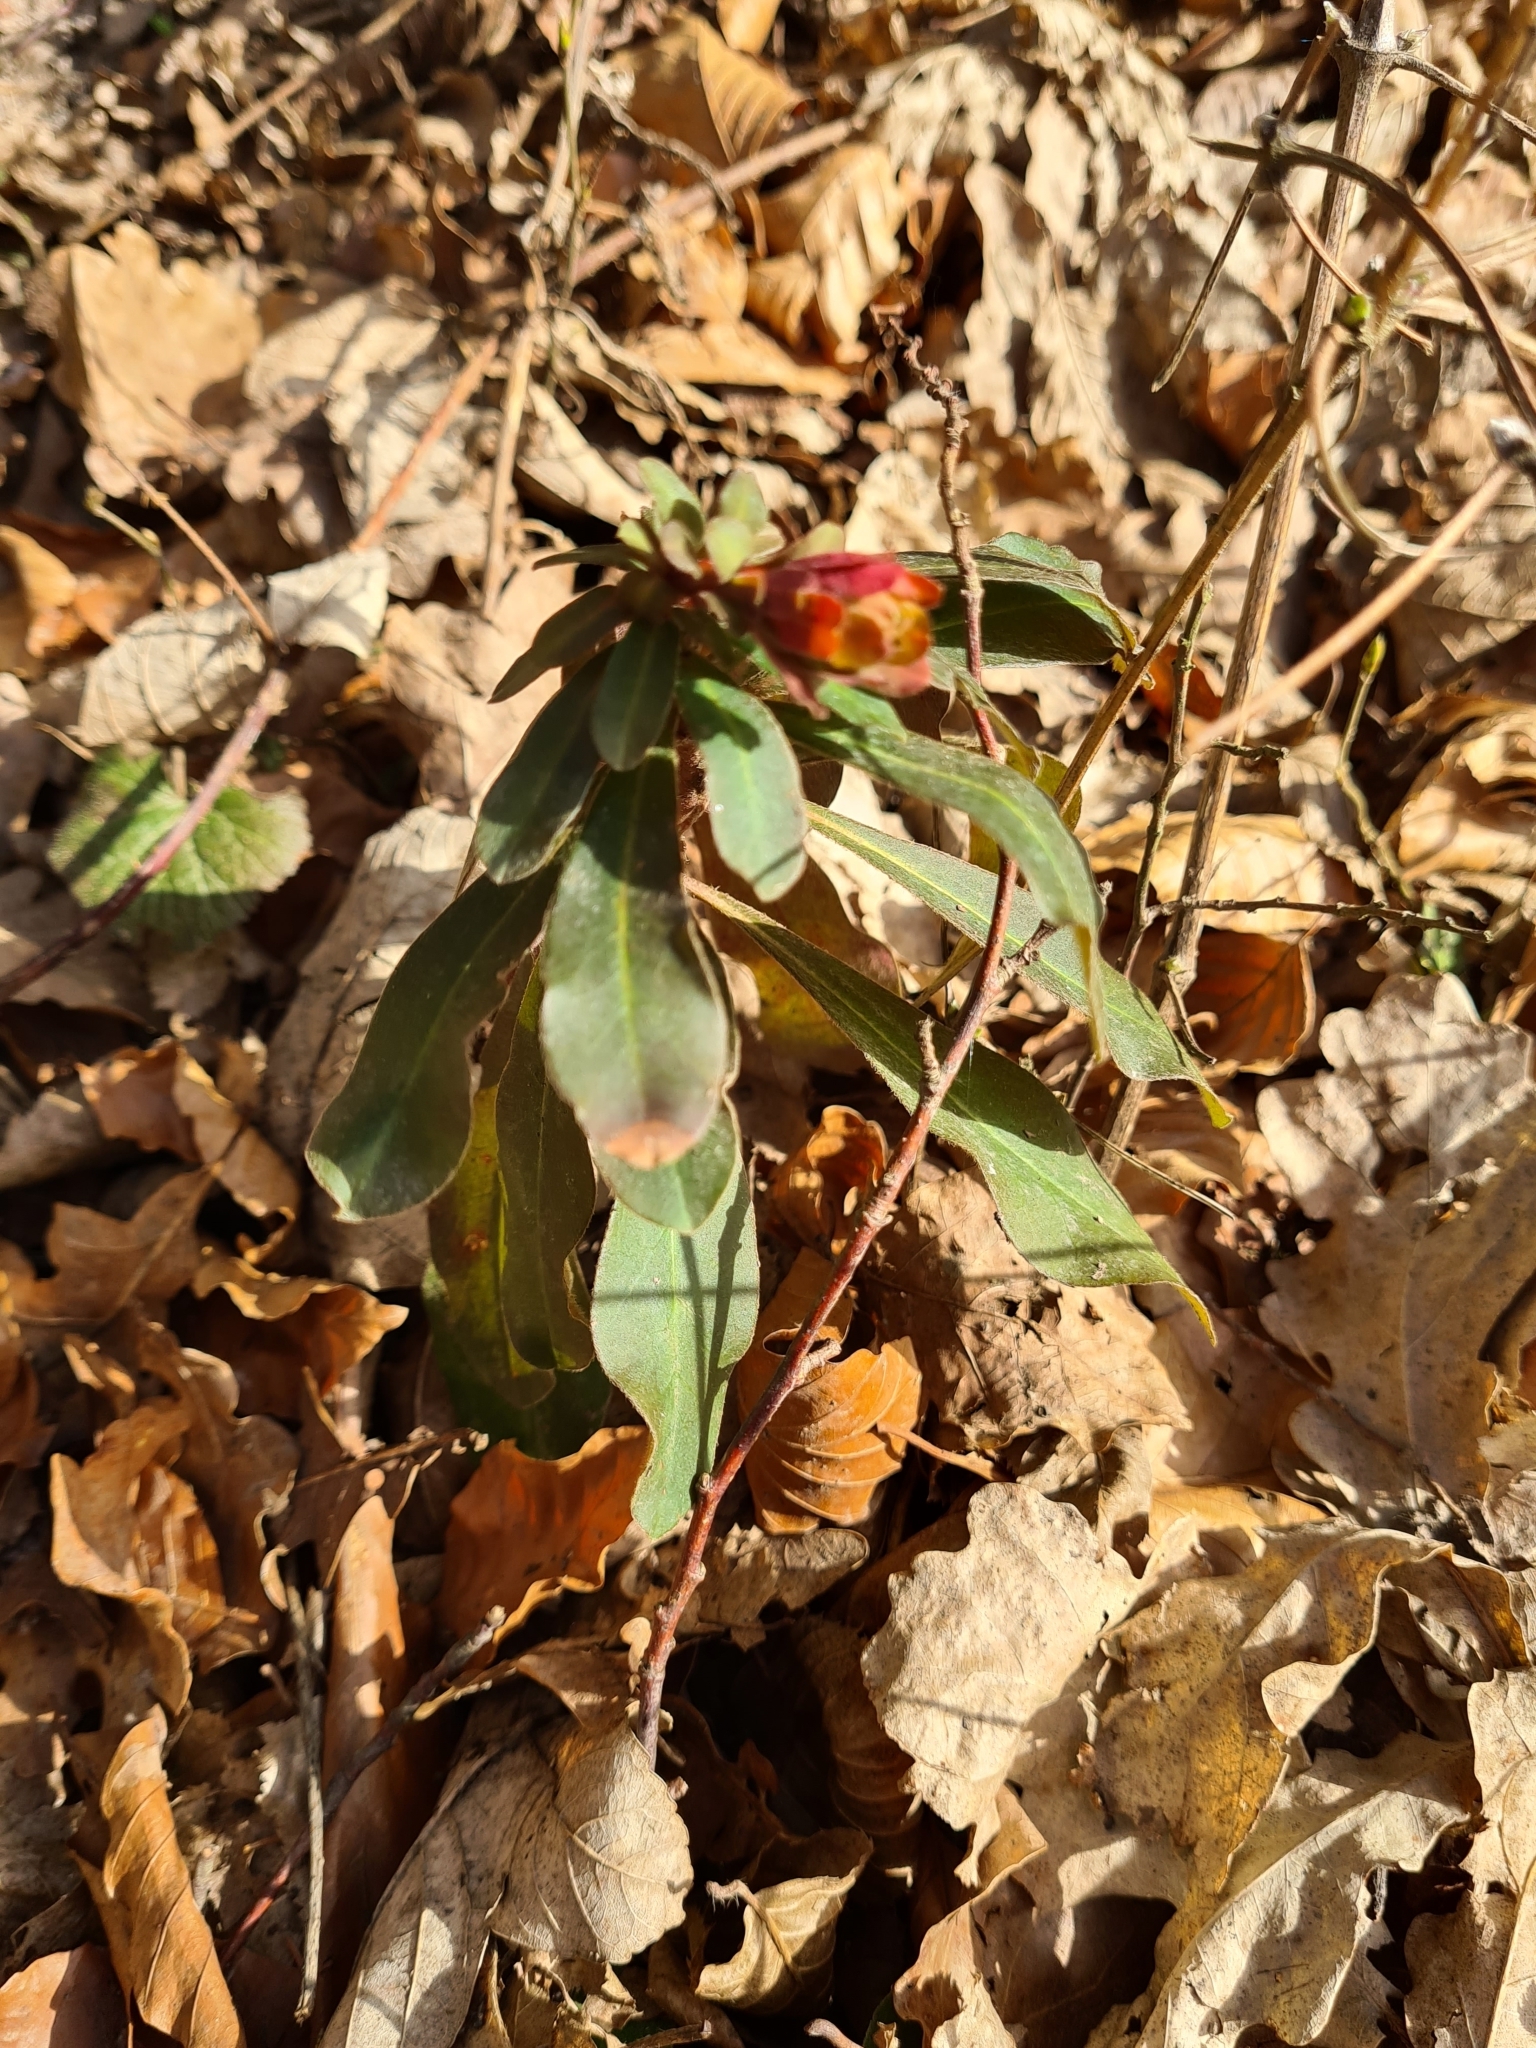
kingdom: Plantae
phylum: Tracheophyta
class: Magnoliopsida
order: Malpighiales
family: Euphorbiaceae
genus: Euphorbia
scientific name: Euphorbia amygdaloides
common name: Wood spurge
